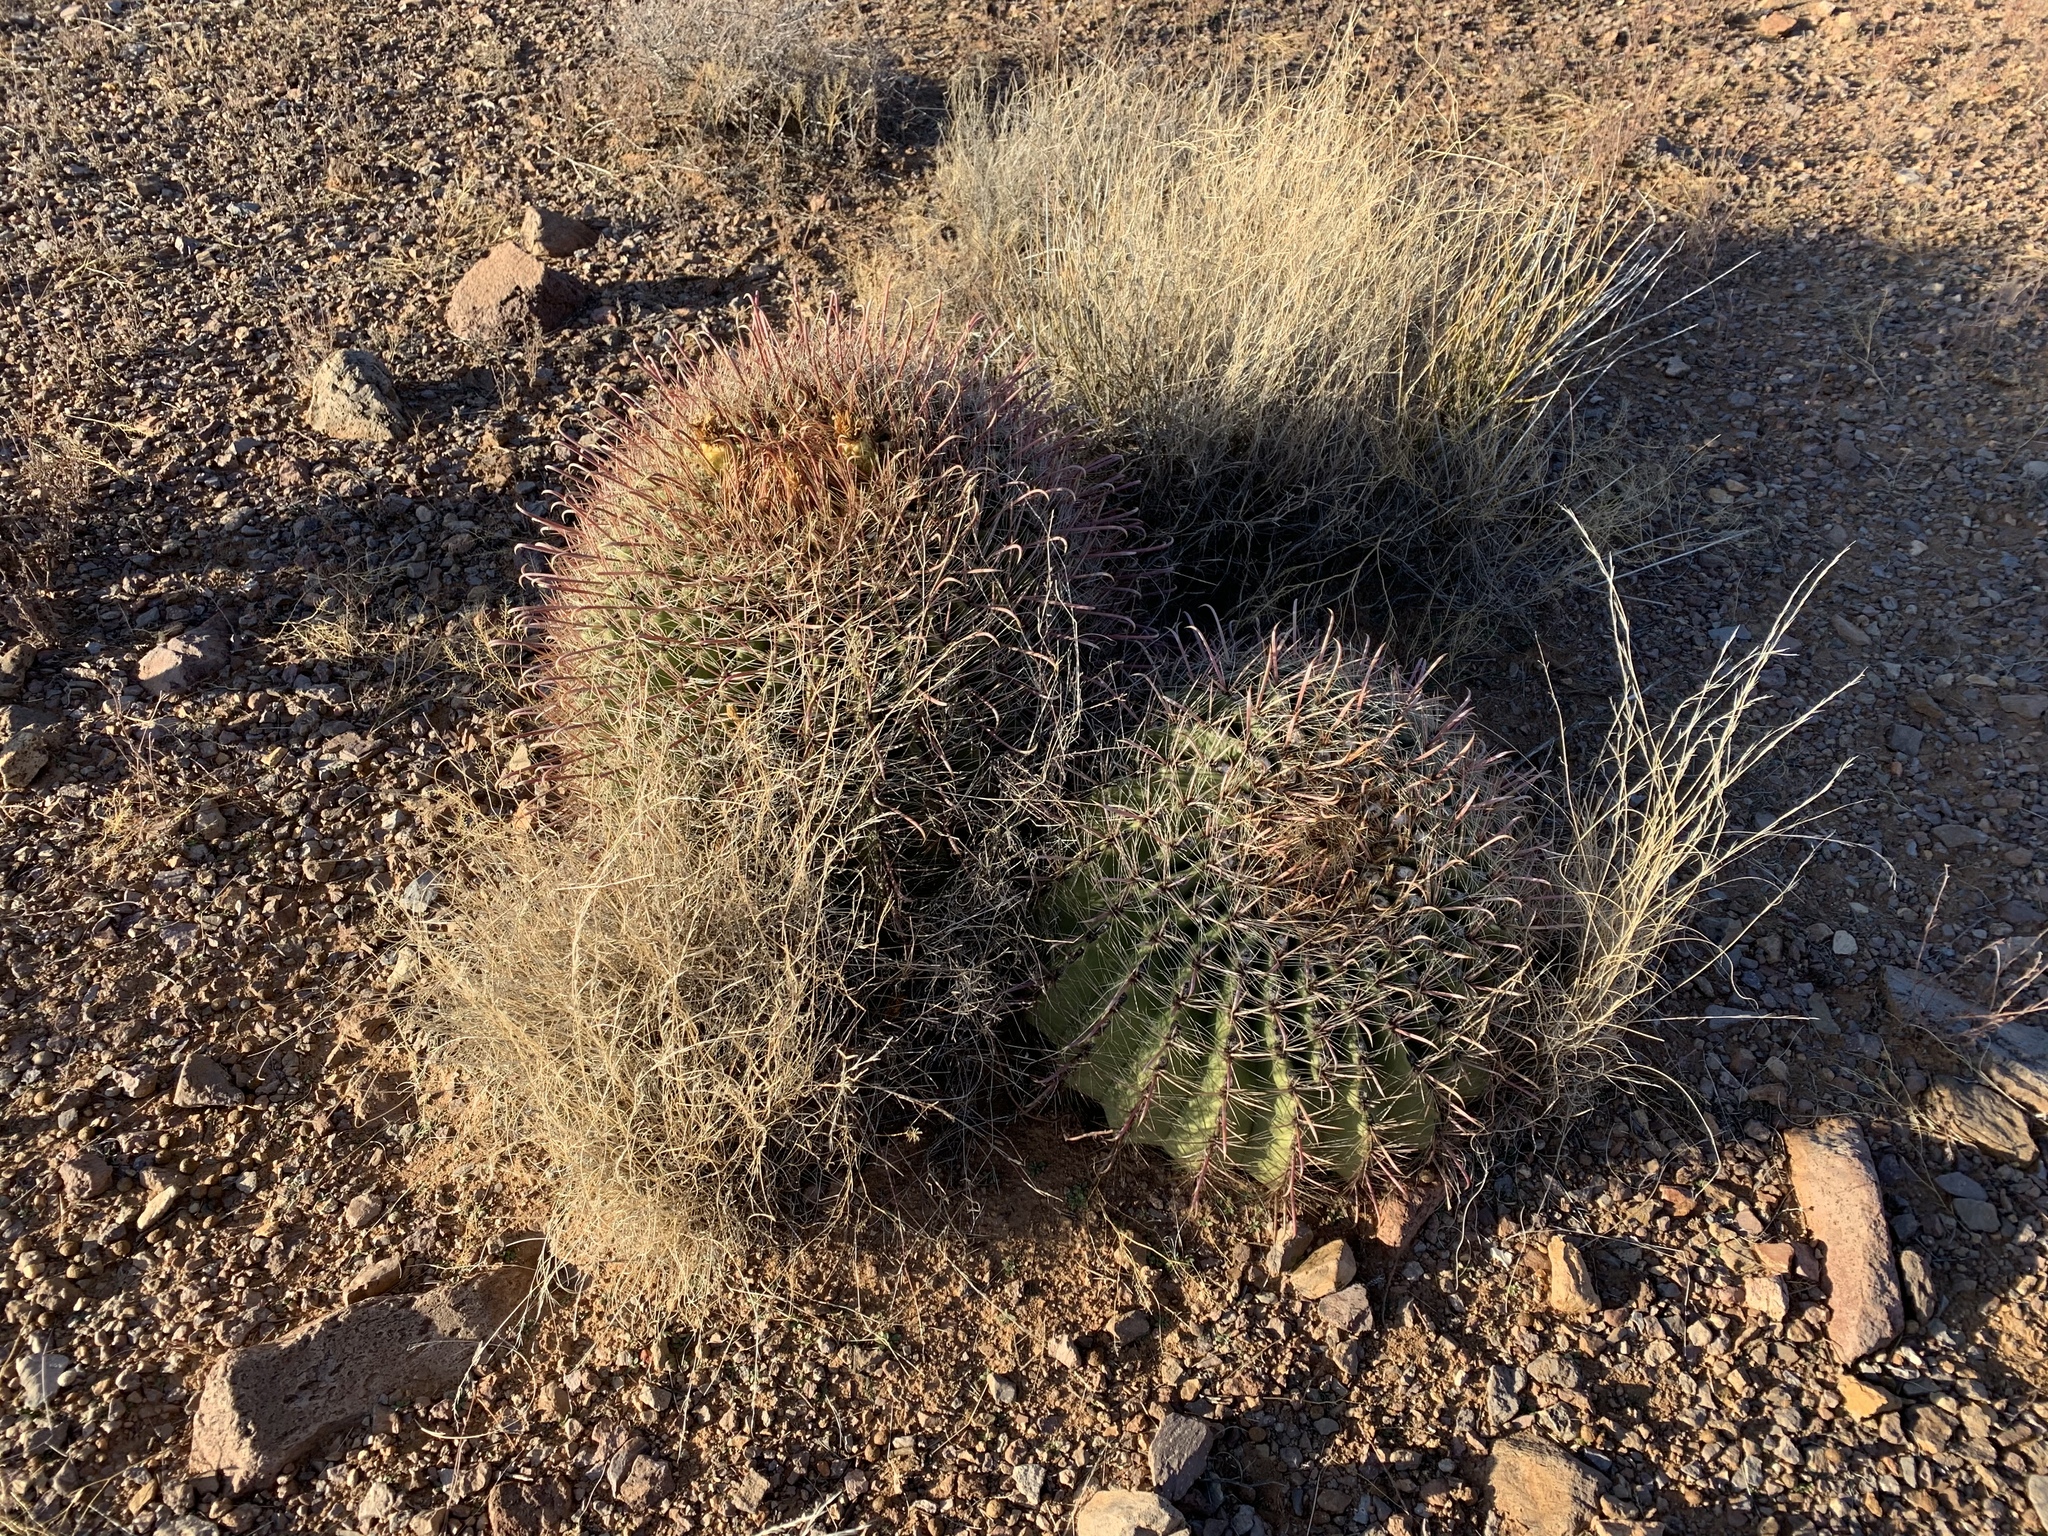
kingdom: Plantae
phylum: Tracheophyta
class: Magnoliopsida
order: Caryophyllales
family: Cactaceae
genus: Ferocactus
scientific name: Ferocactus wislizeni
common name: Candy barrel cactus
